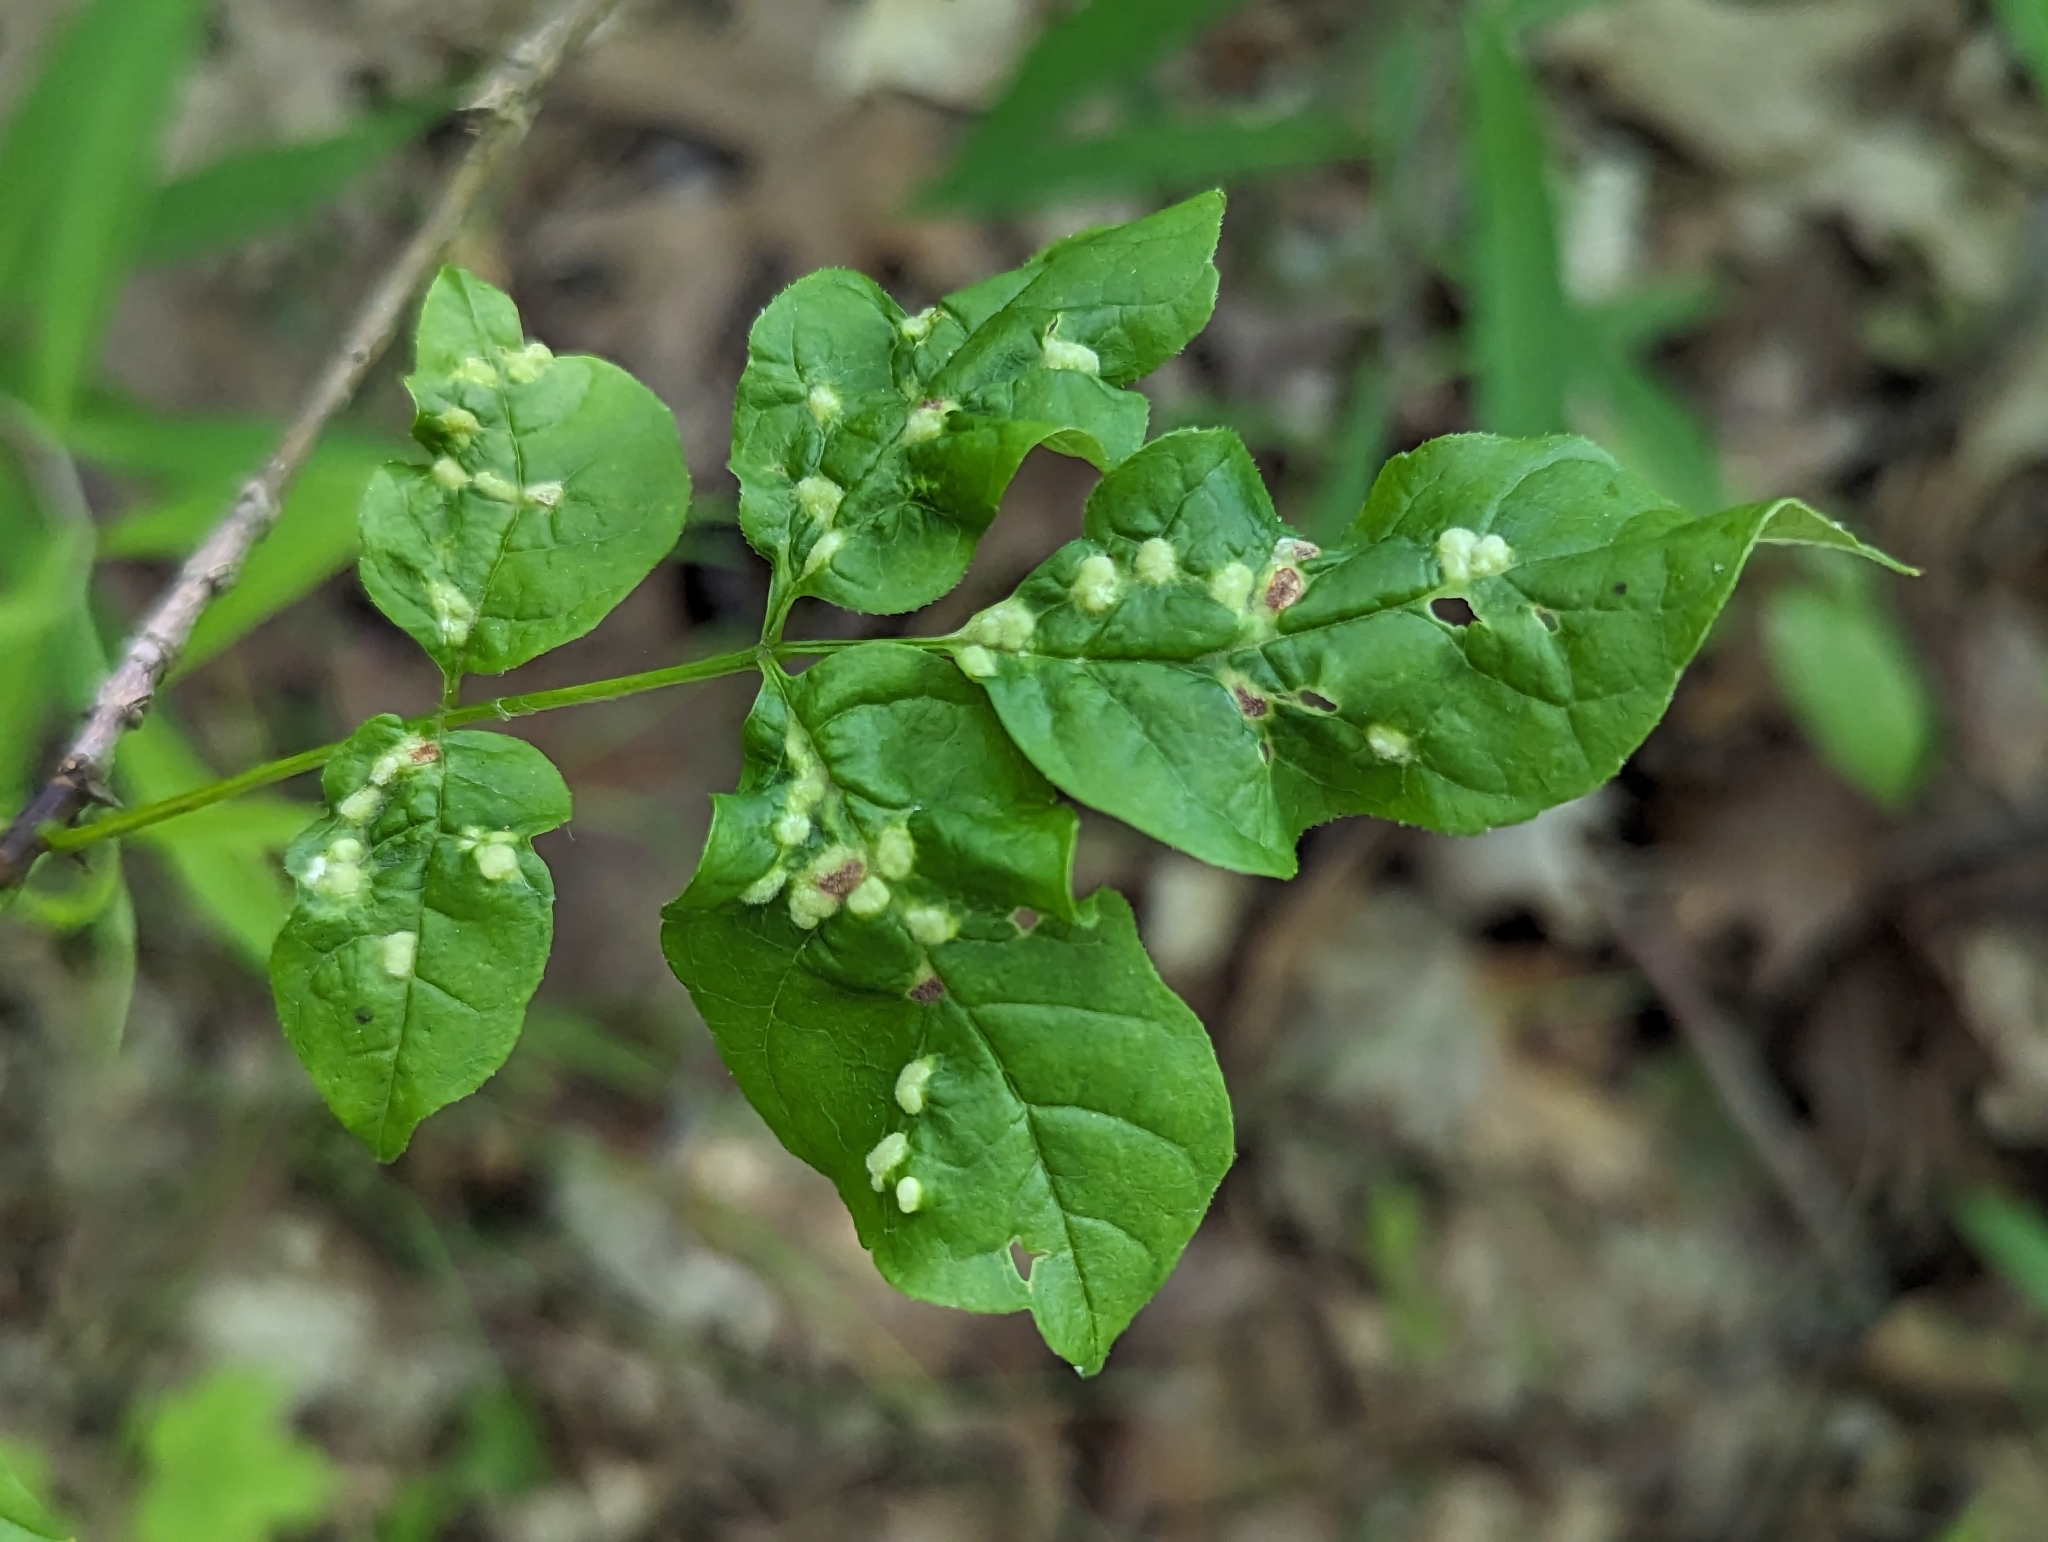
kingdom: Animalia
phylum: Arthropoda
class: Arachnida
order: Trombidiformes
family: Eriophyidae
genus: Aceria
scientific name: Aceria fraxinicola
